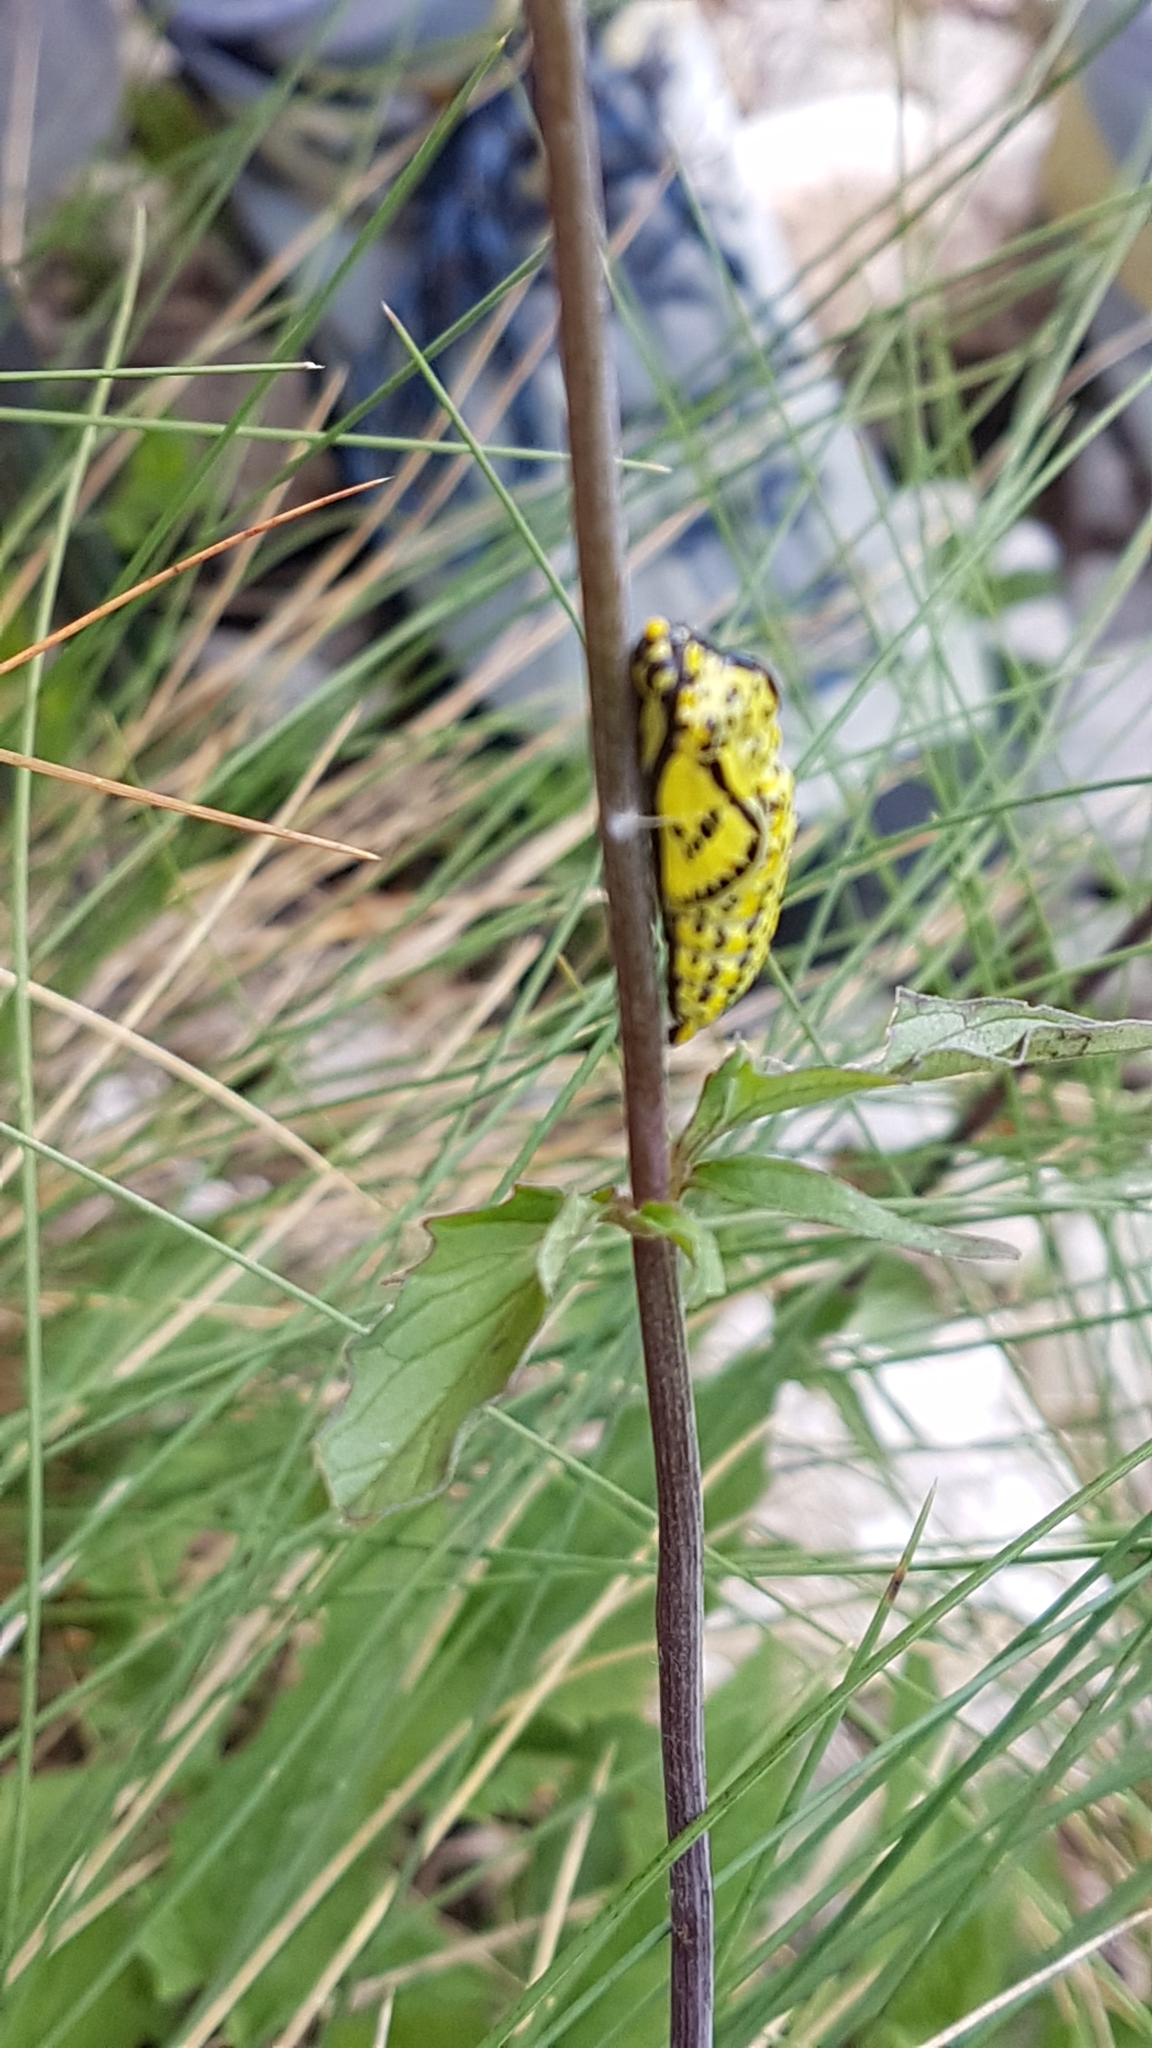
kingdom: Animalia
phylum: Arthropoda
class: Insecta
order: Lepidoptera
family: Pieridae
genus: Aporia
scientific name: Aporia crataegi
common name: Black-veined white
